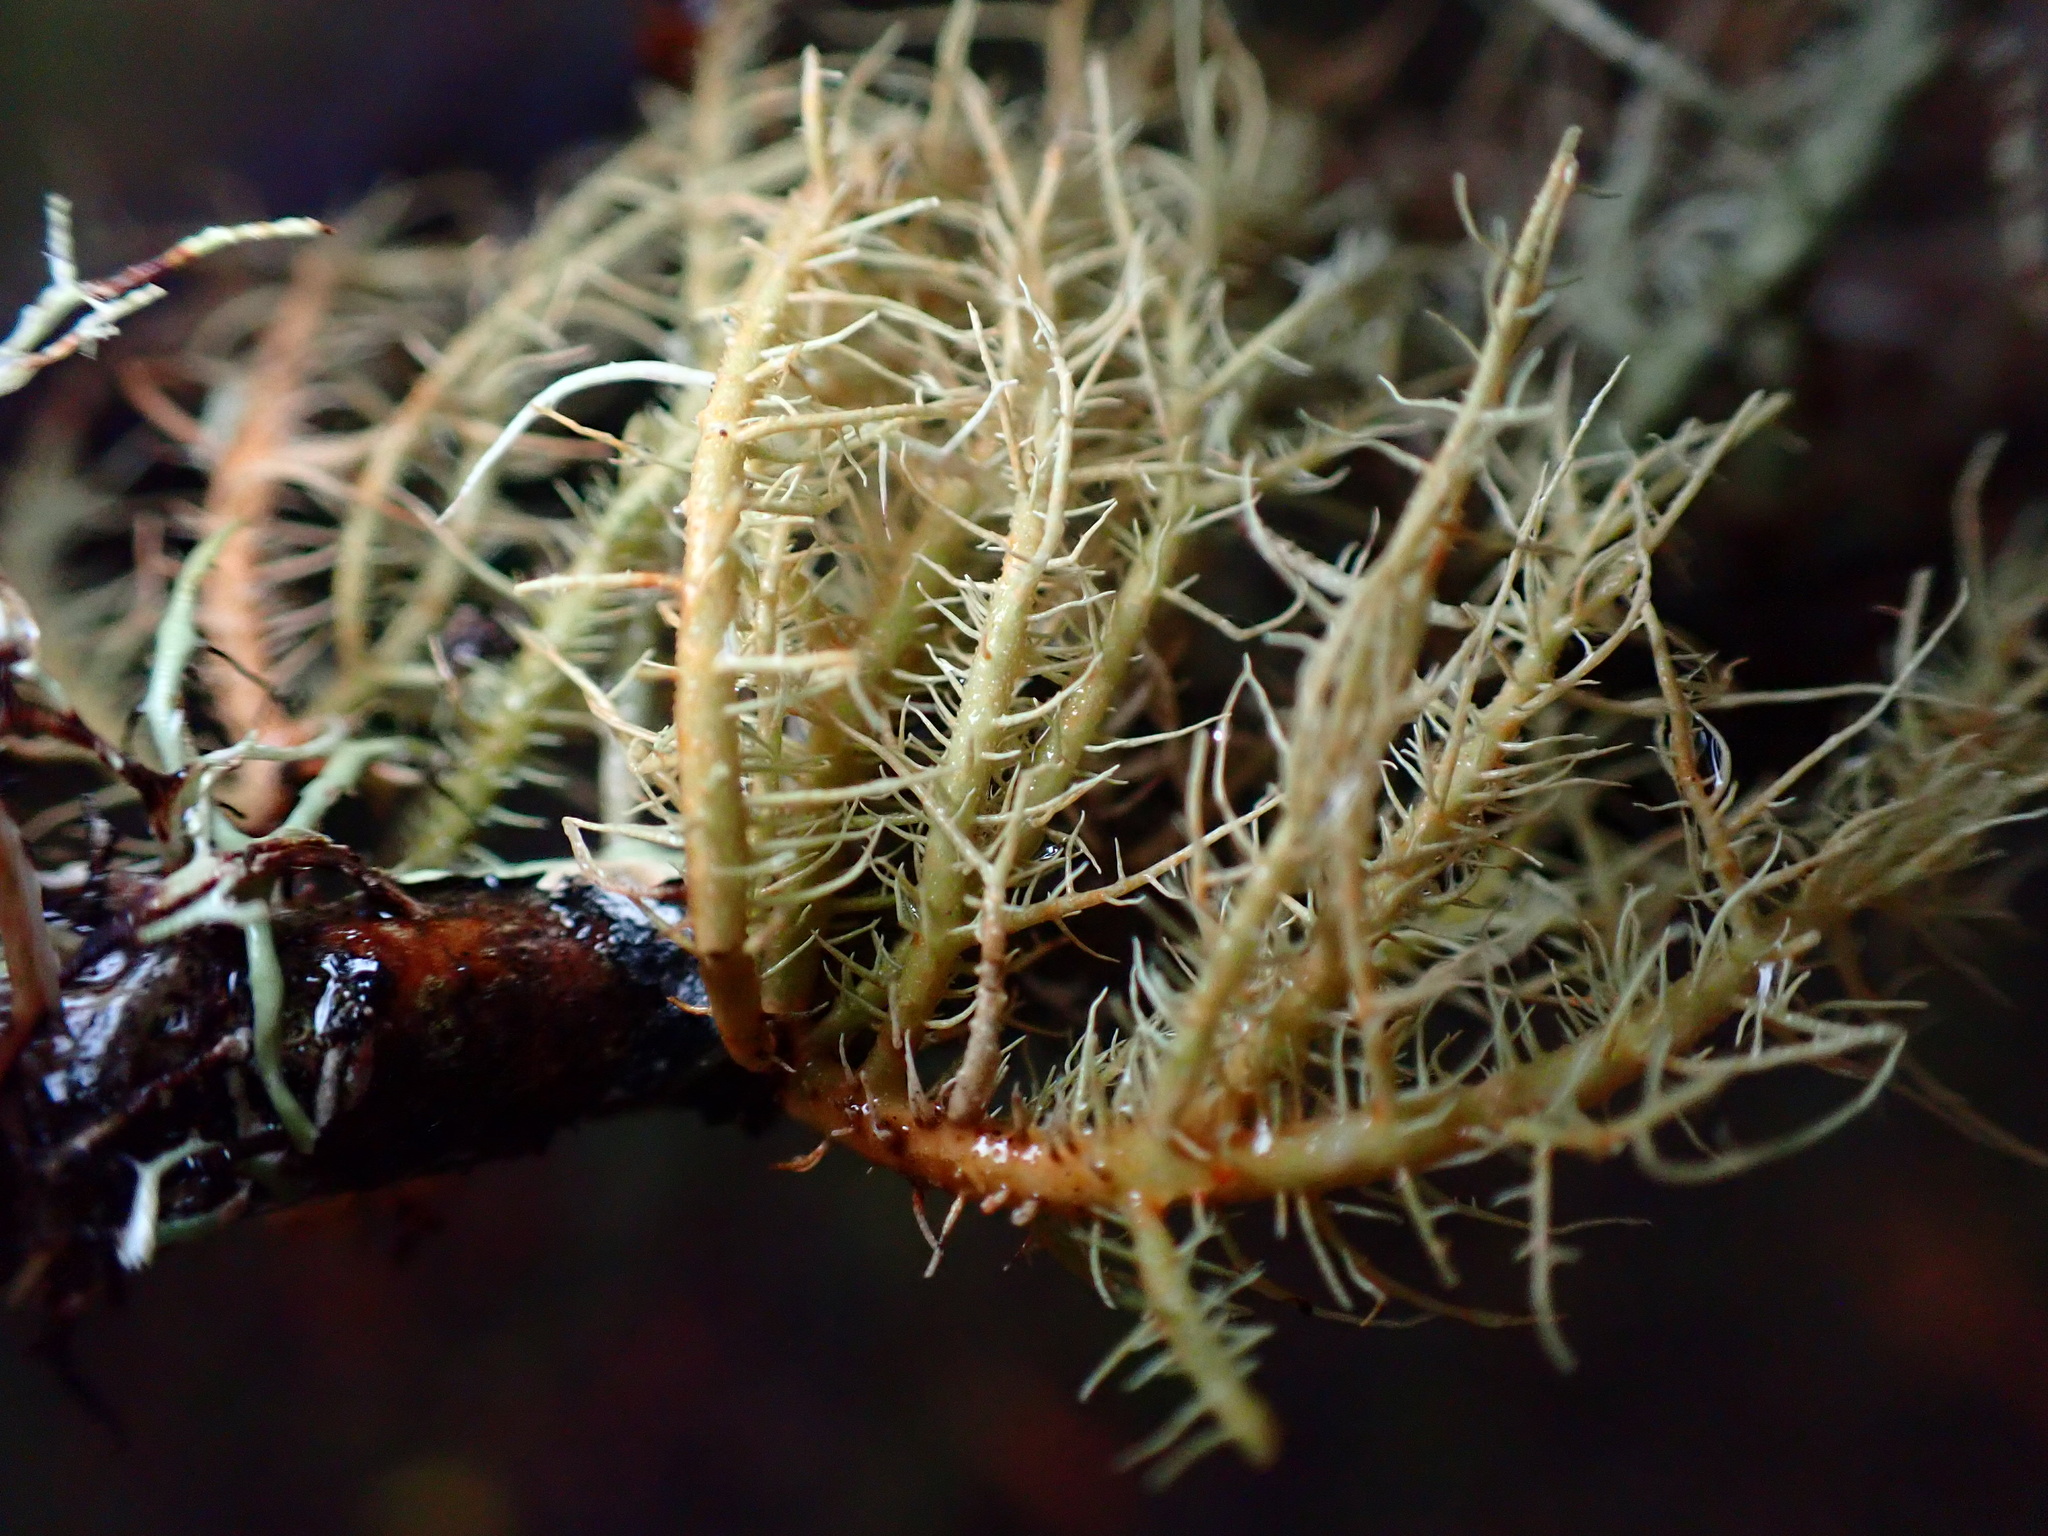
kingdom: Fungi
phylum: Ascomycota
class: Lecanoromycetes
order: Lecanorales
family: Parmeliaceae
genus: Usnea
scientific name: Usnea rubicunda
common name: Red beard lichen
